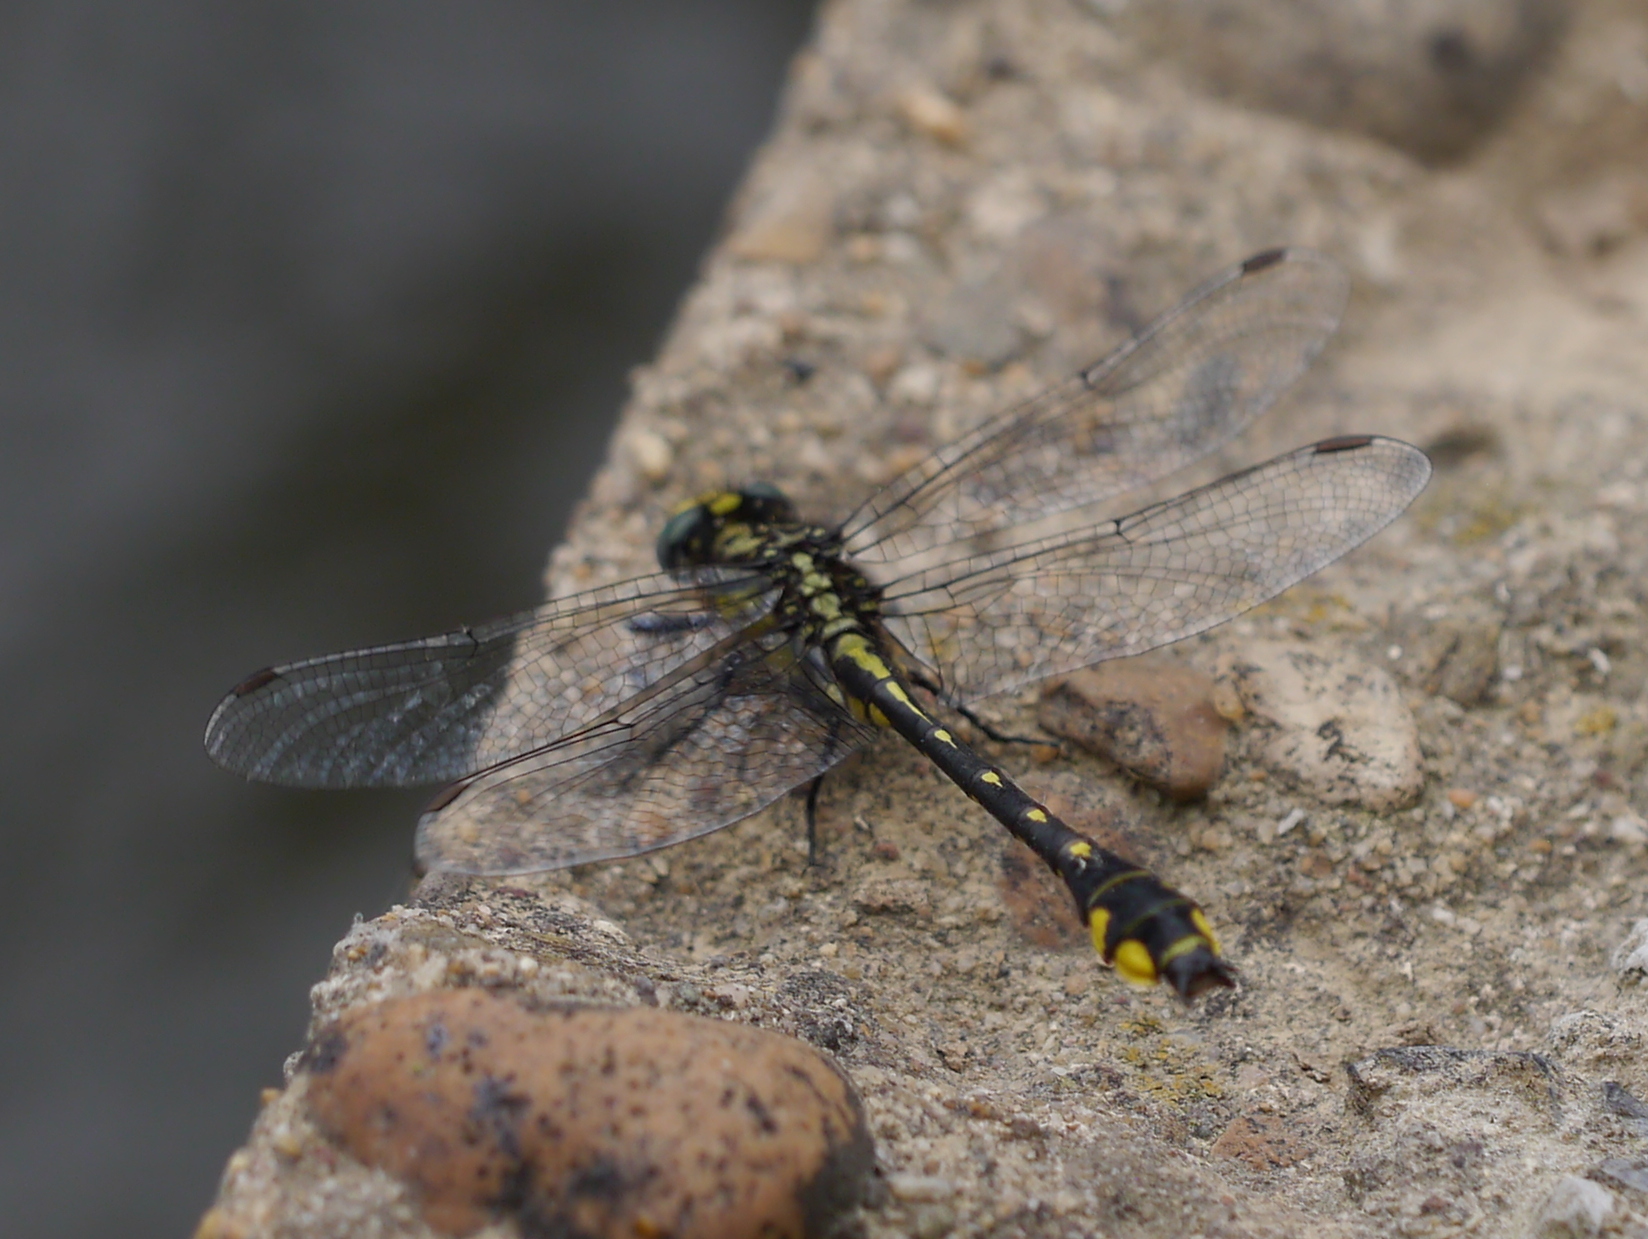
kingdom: Animalia
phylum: Arthropoda
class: Insecta
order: Odonata
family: Gomphidae
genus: Hylogomphus
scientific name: Hylogomphus abbreviatus
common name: Spine-crowned clubtail
